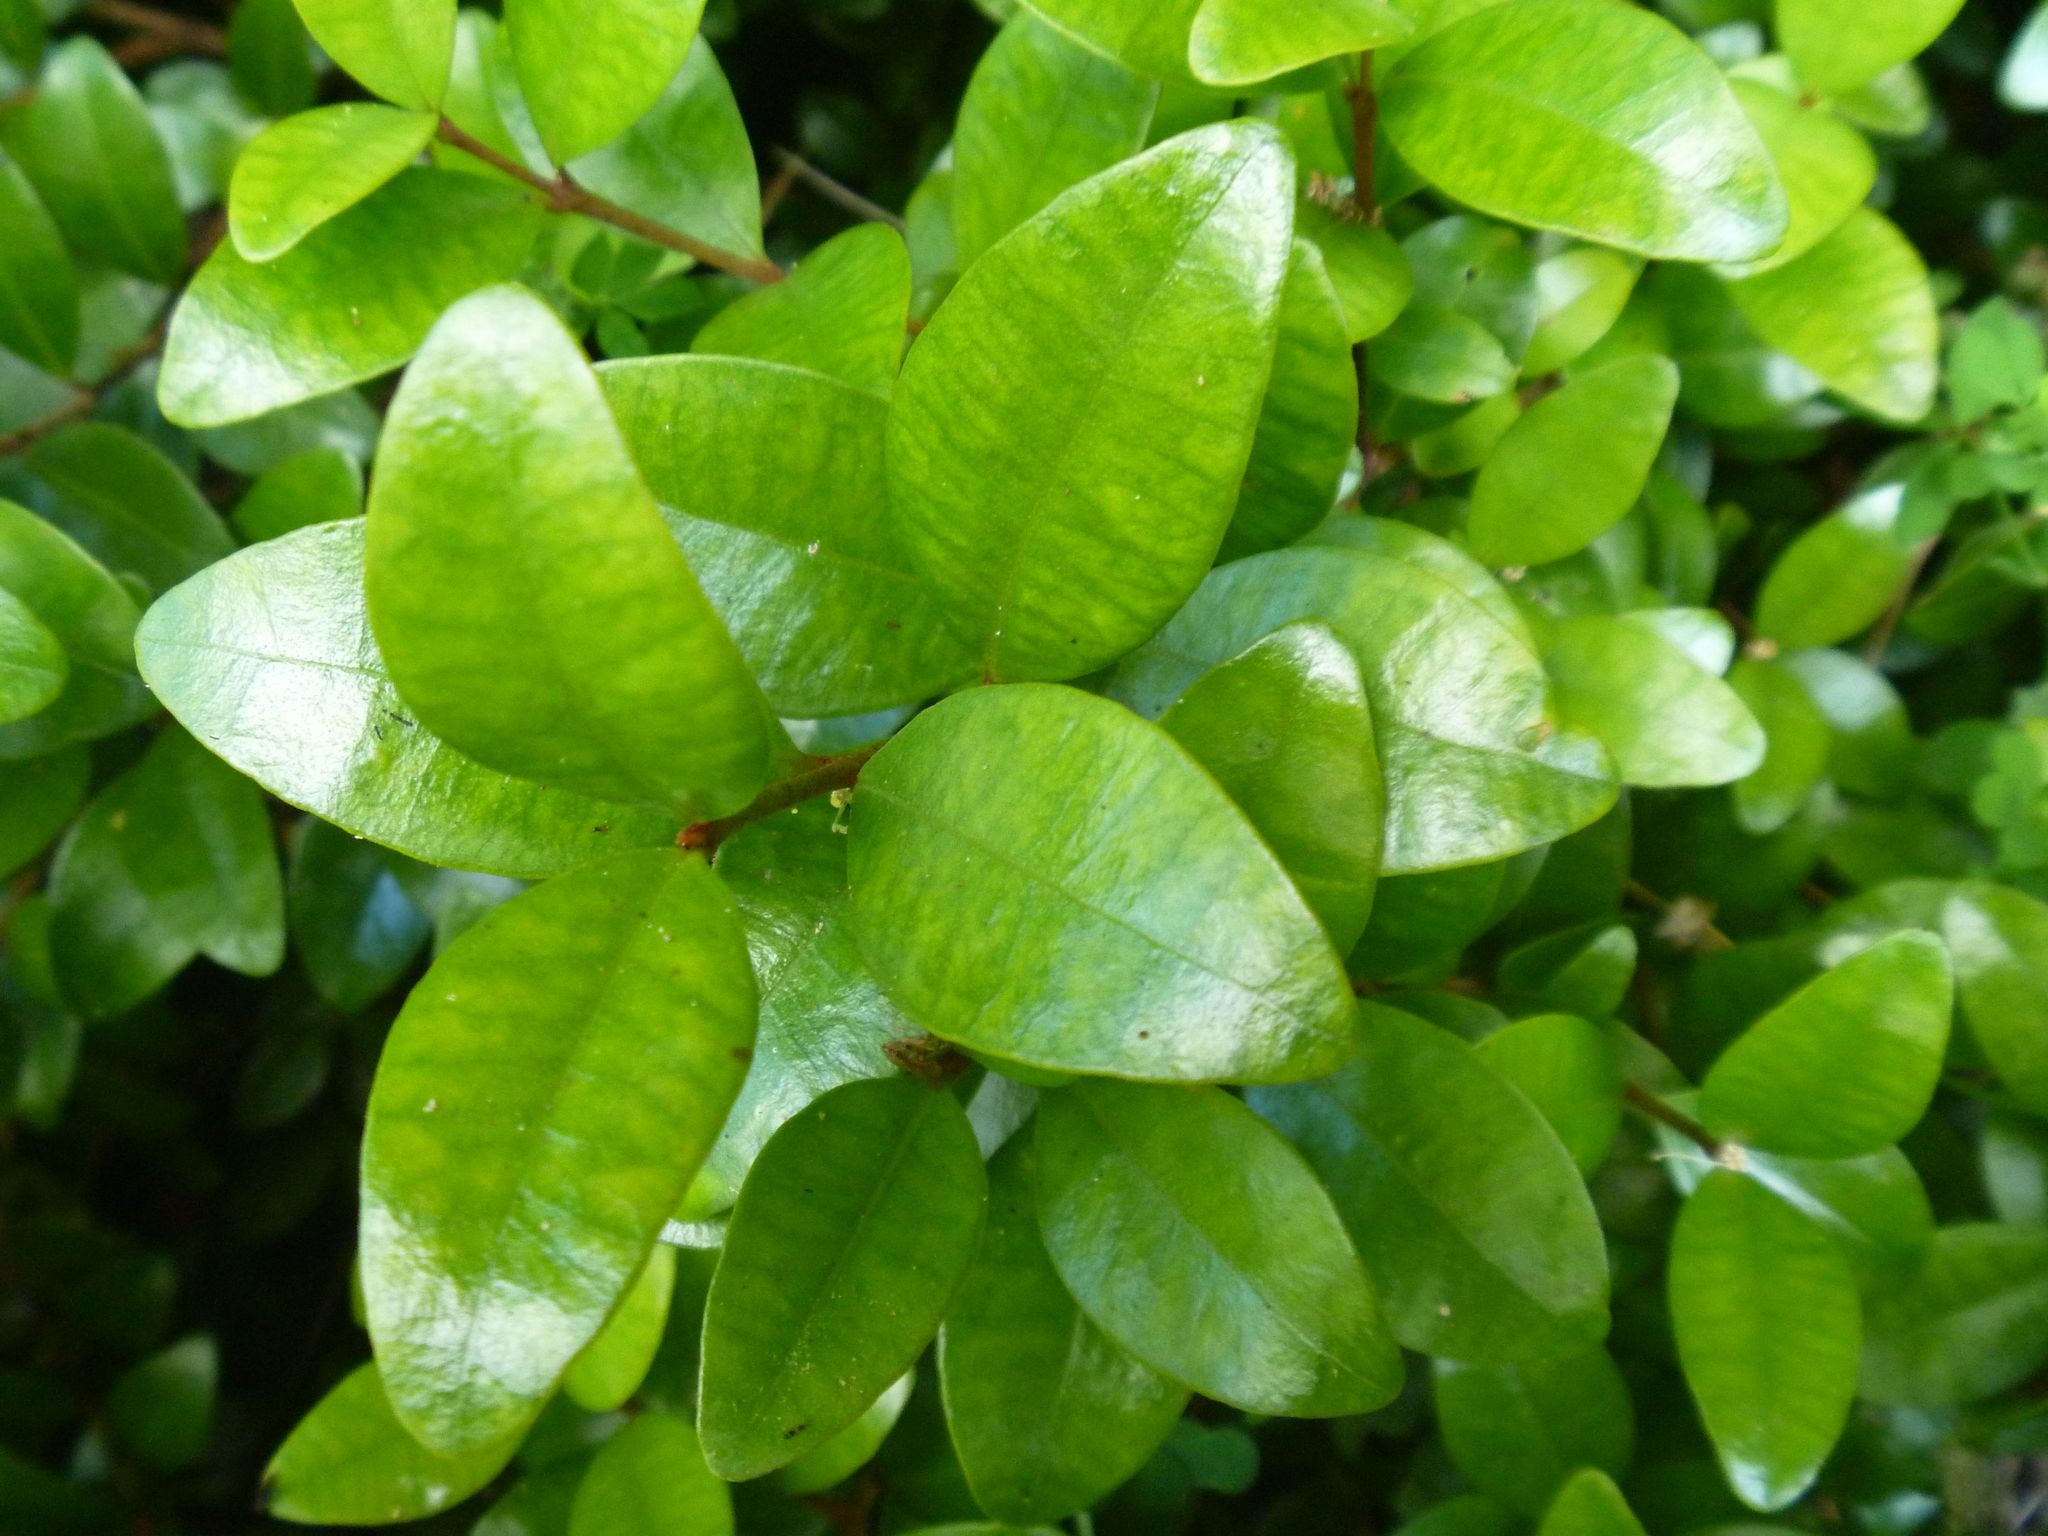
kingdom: Plantae
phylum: Tracheophyta
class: Magnoliopsida
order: Myrtales
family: Myrtaceae
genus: Metrosideros
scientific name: Metrosideros fulgens
